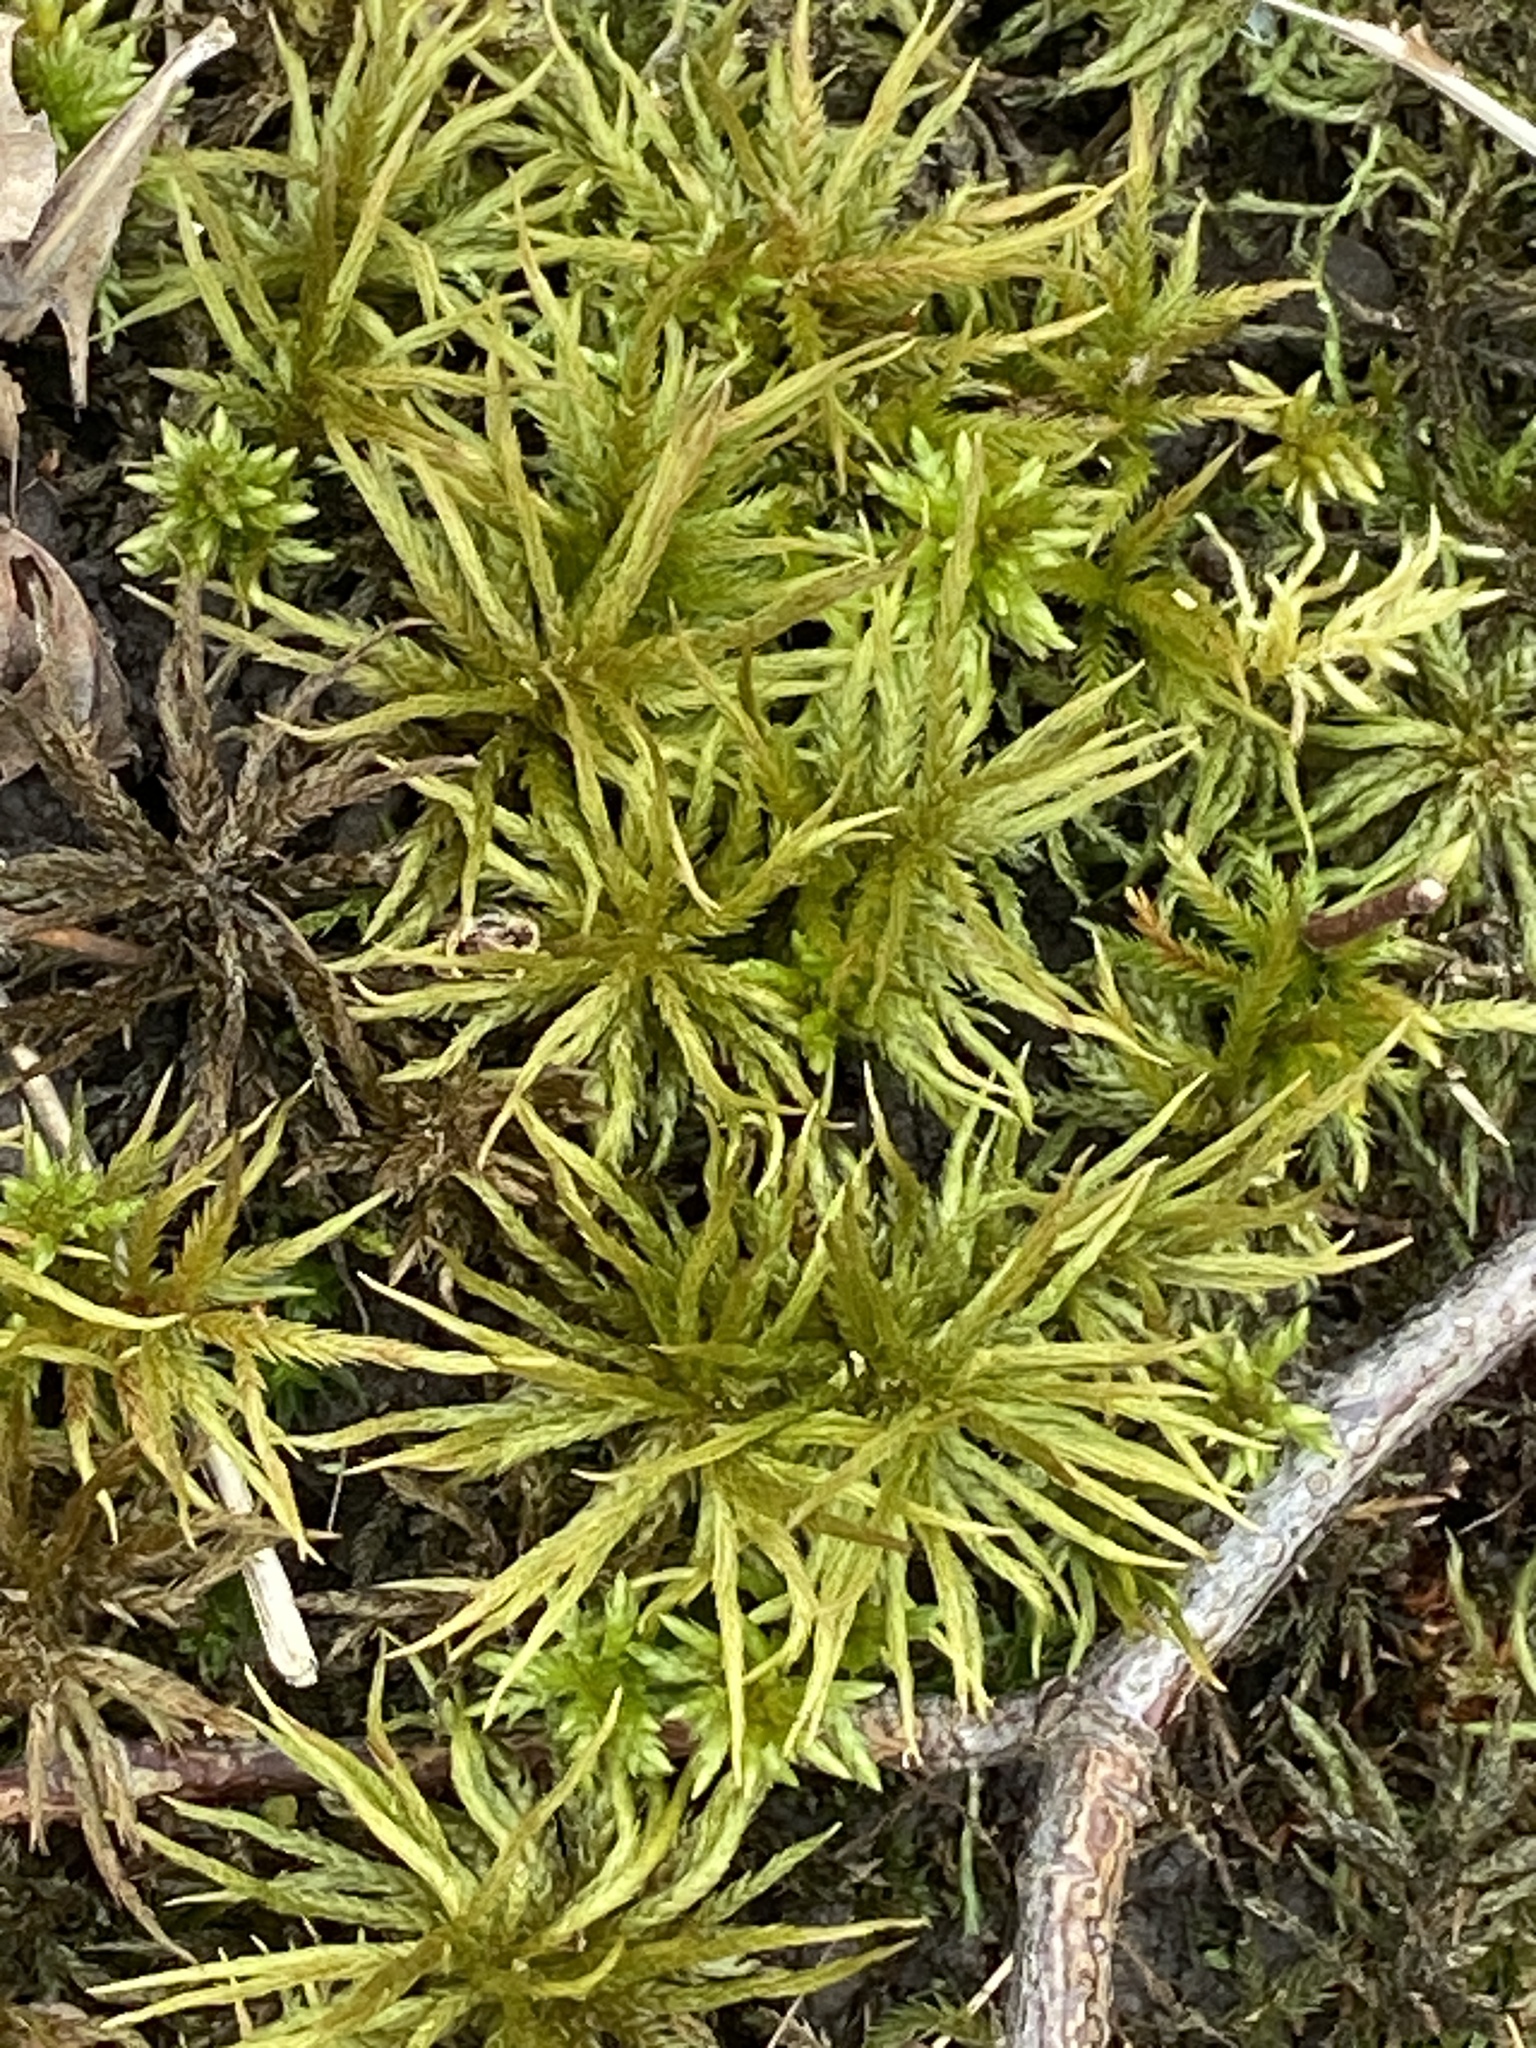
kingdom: Plantae
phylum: Bryophyta
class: Bryopsida
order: Hypnales
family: Climaciaceae
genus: Climacium
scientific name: Climacium dendroides
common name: Northern tree moss
